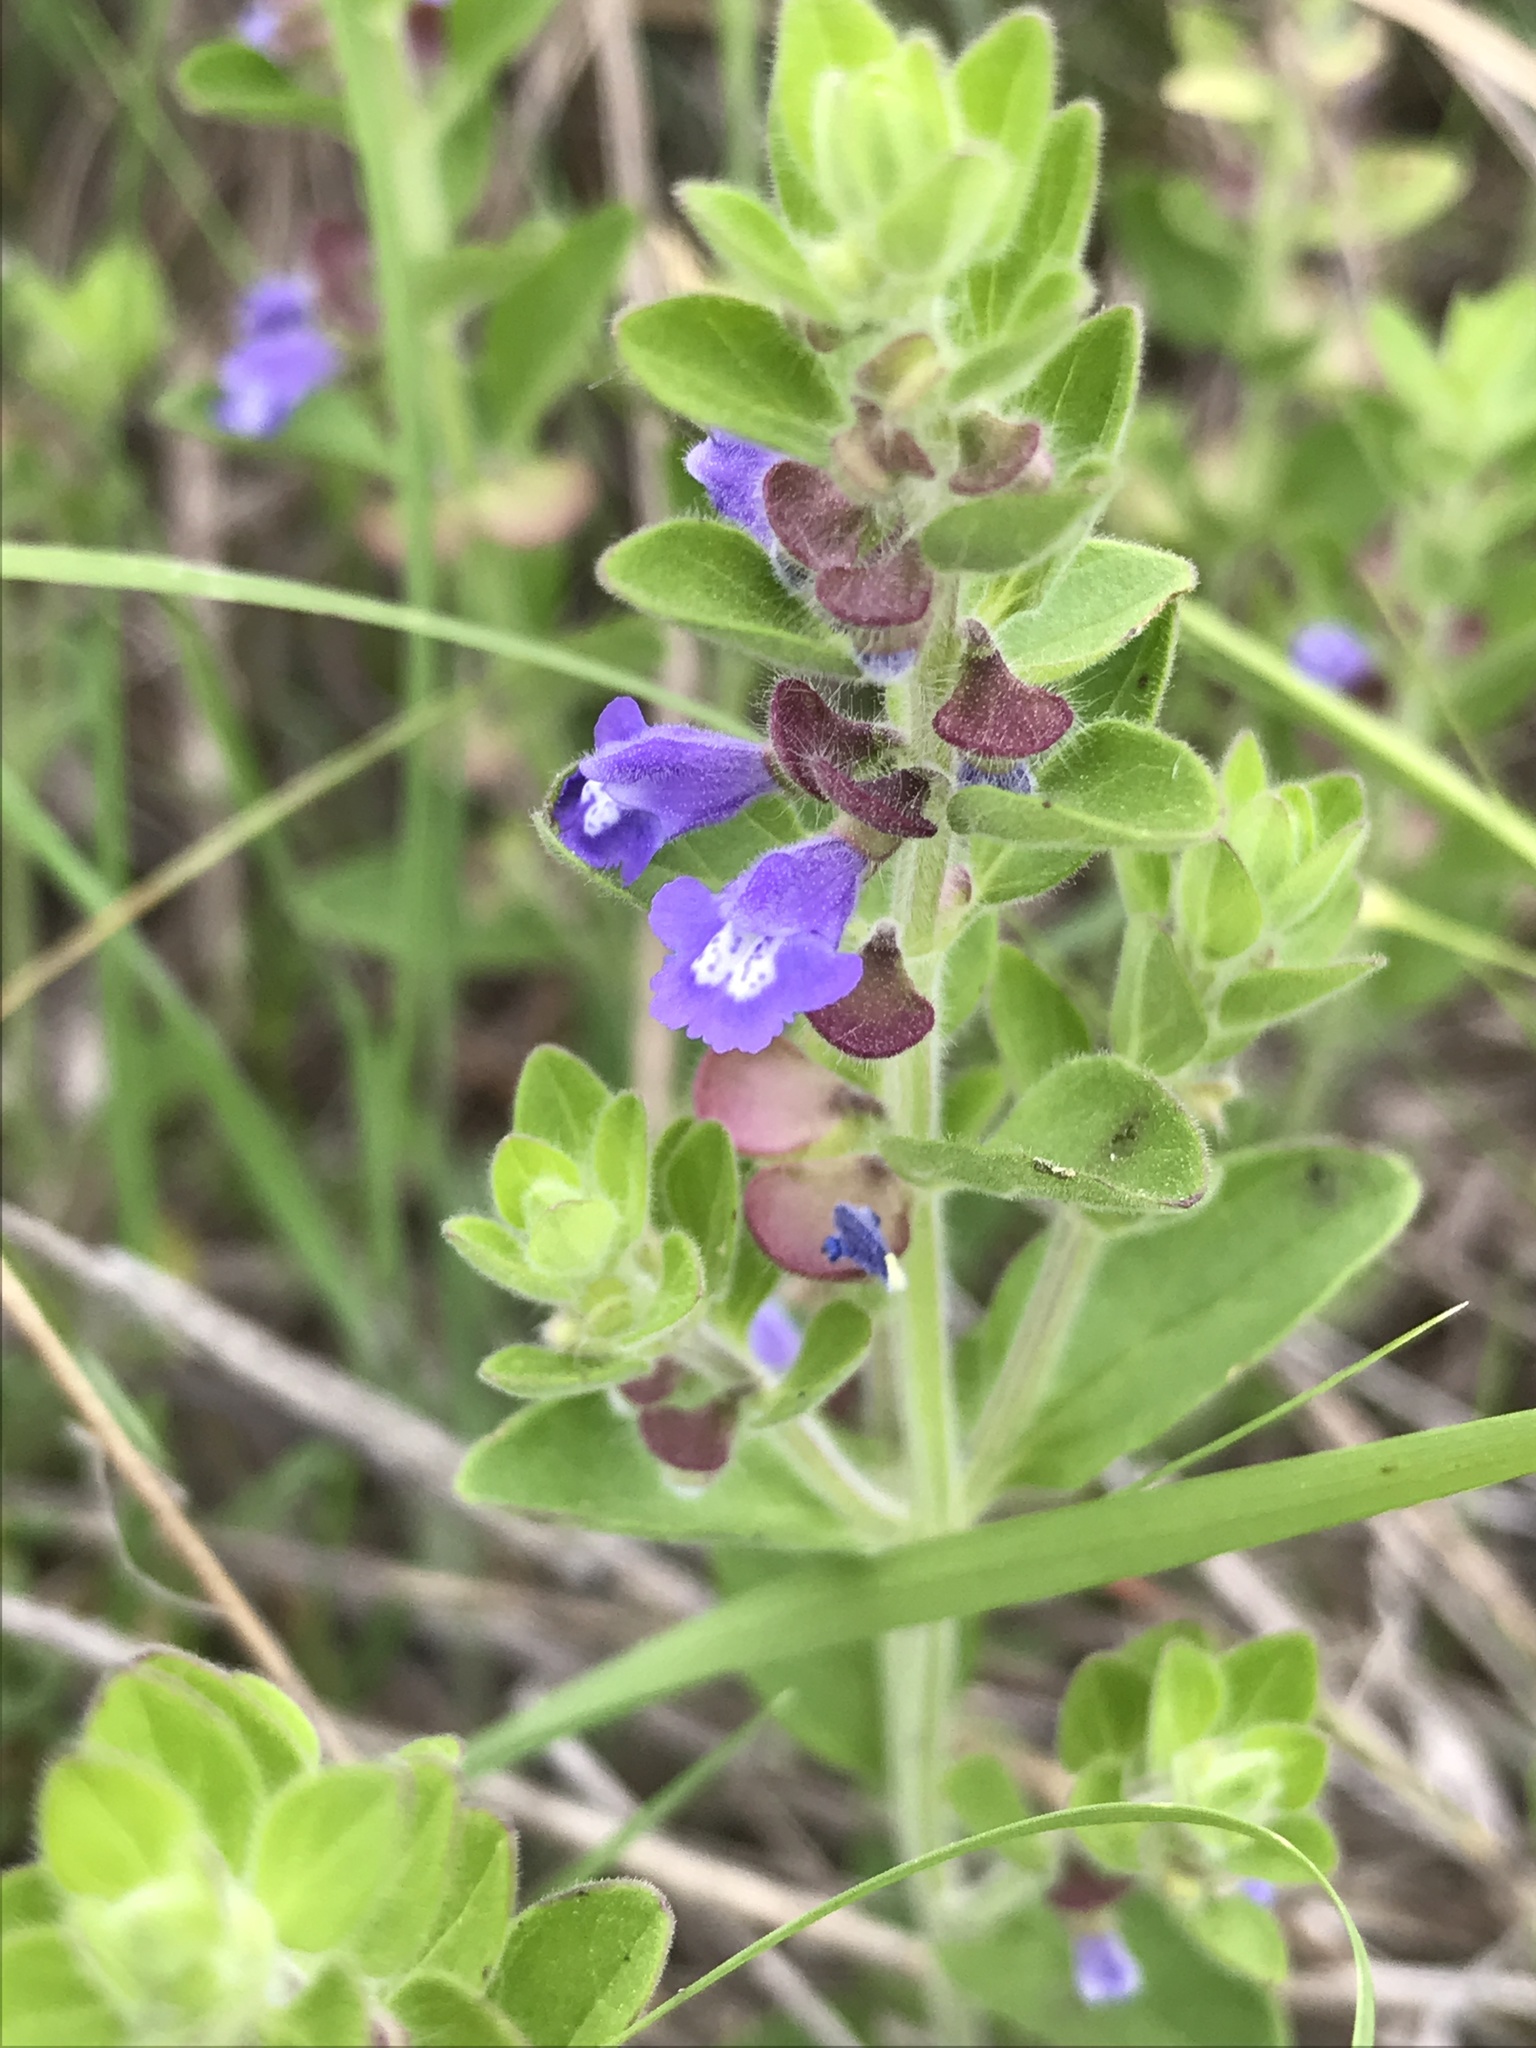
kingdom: Plantae
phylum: Tracheophyta
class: Magnoliopsida
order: Lamiales
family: Lamiaceae
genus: Scutellaria
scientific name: Scutellaria drummondii
